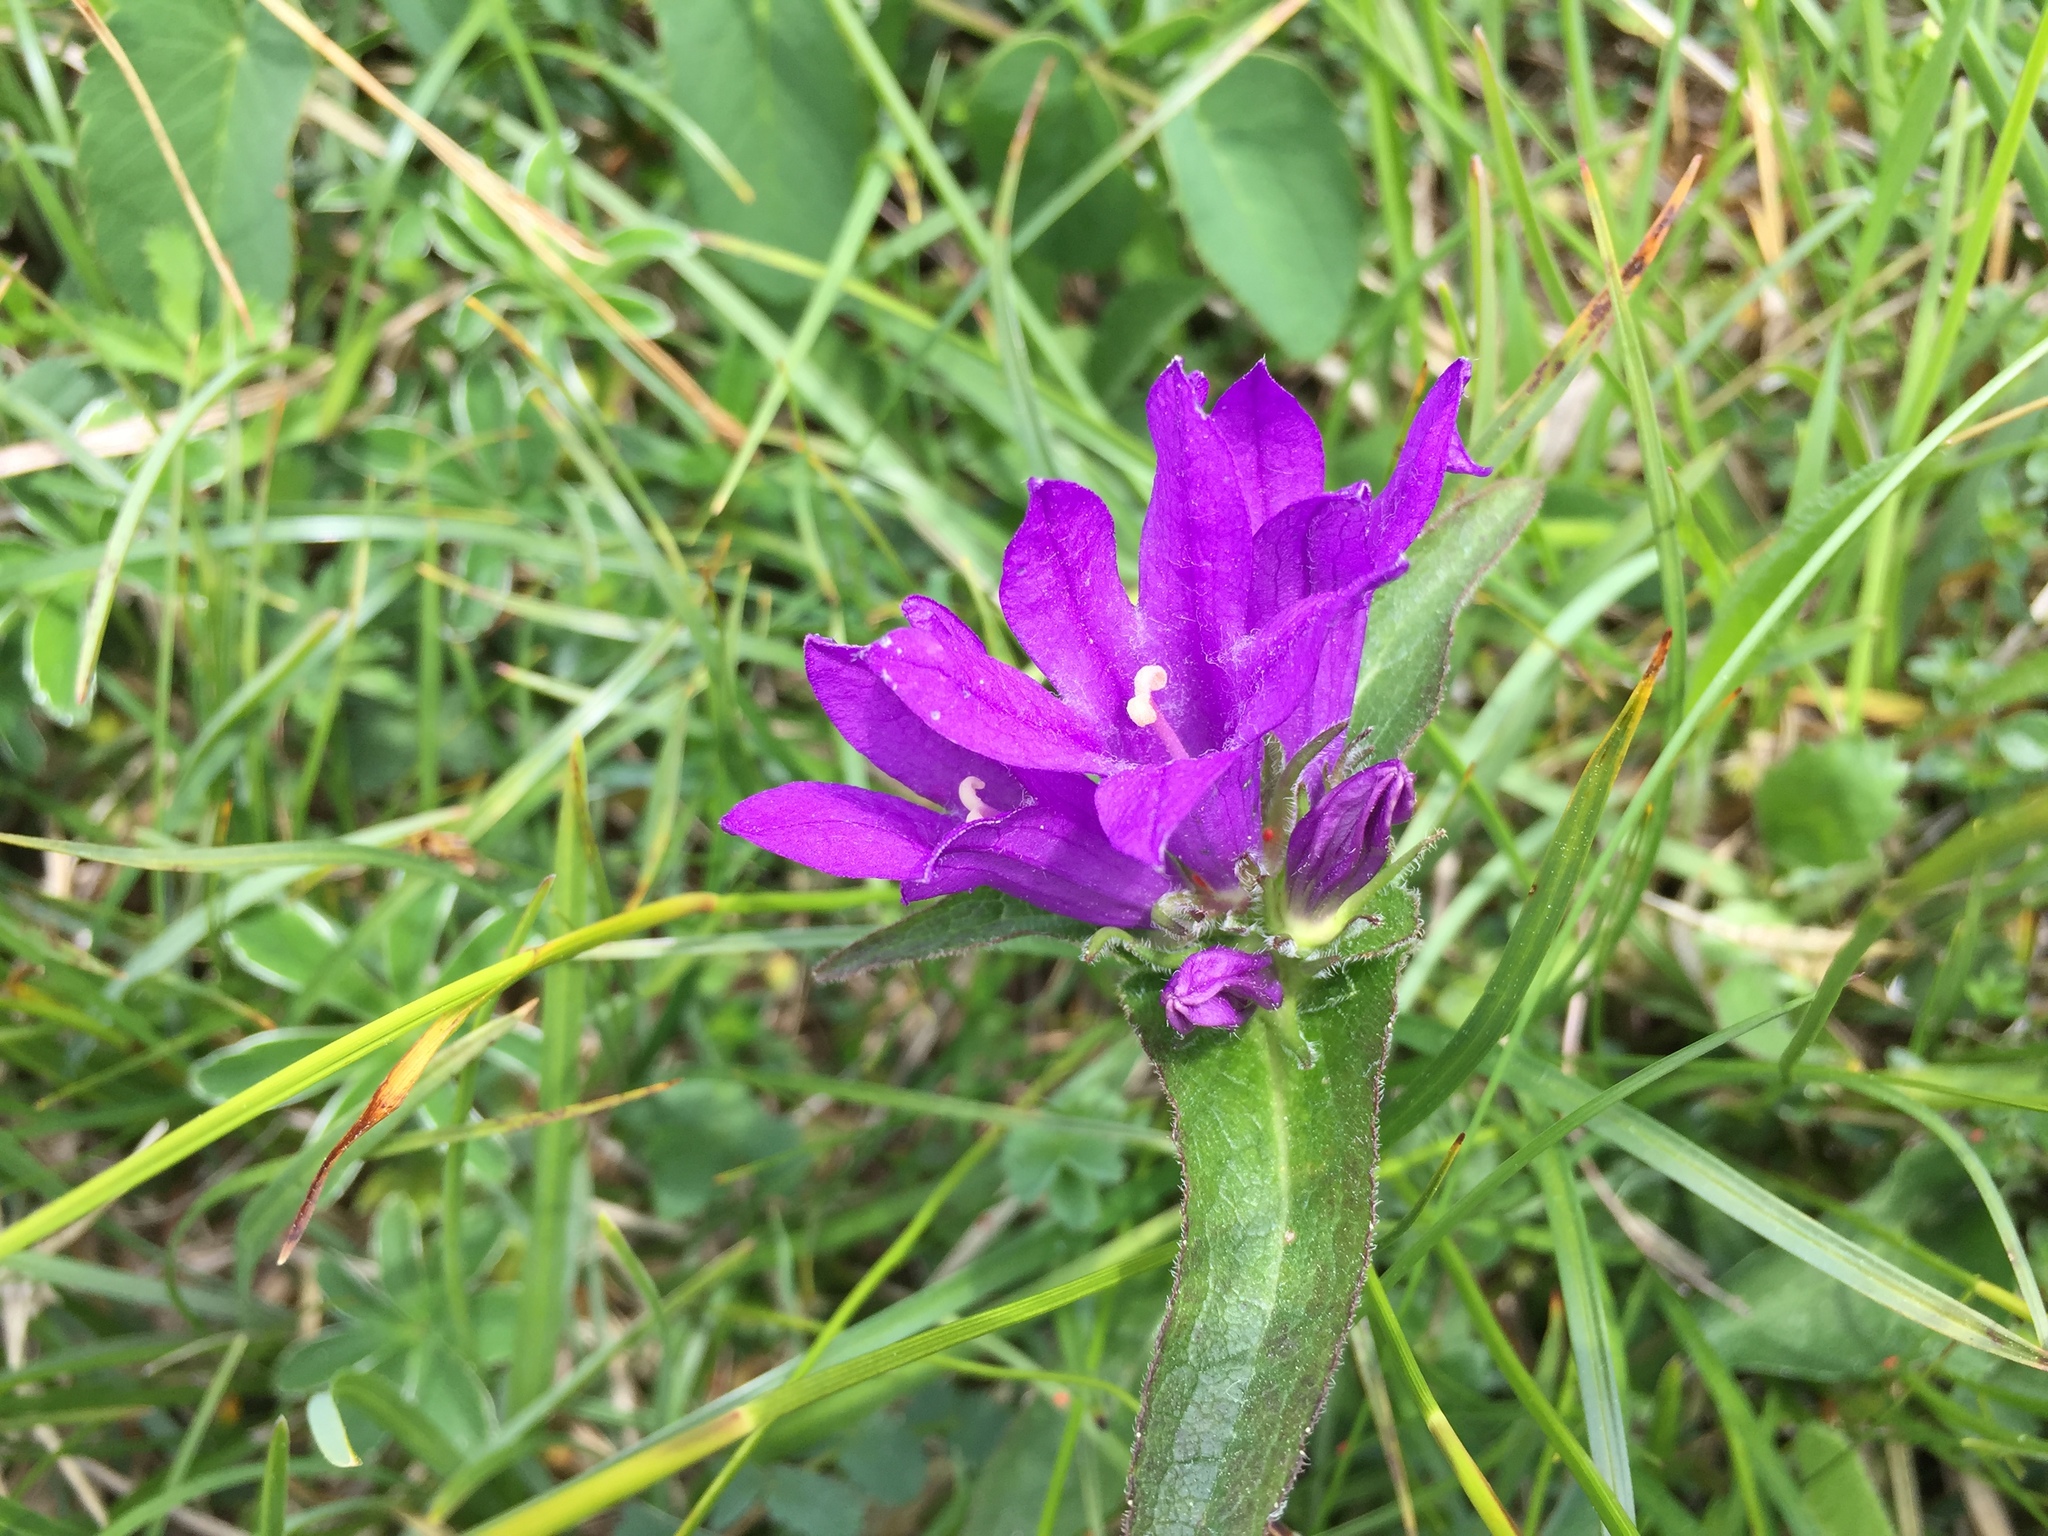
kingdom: Plantae
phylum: Tracheophyta
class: Magnoliopsida
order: Asterales
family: Campanulaceae
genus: Campanula
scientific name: Campanula glomerata
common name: Clustered bellflower
